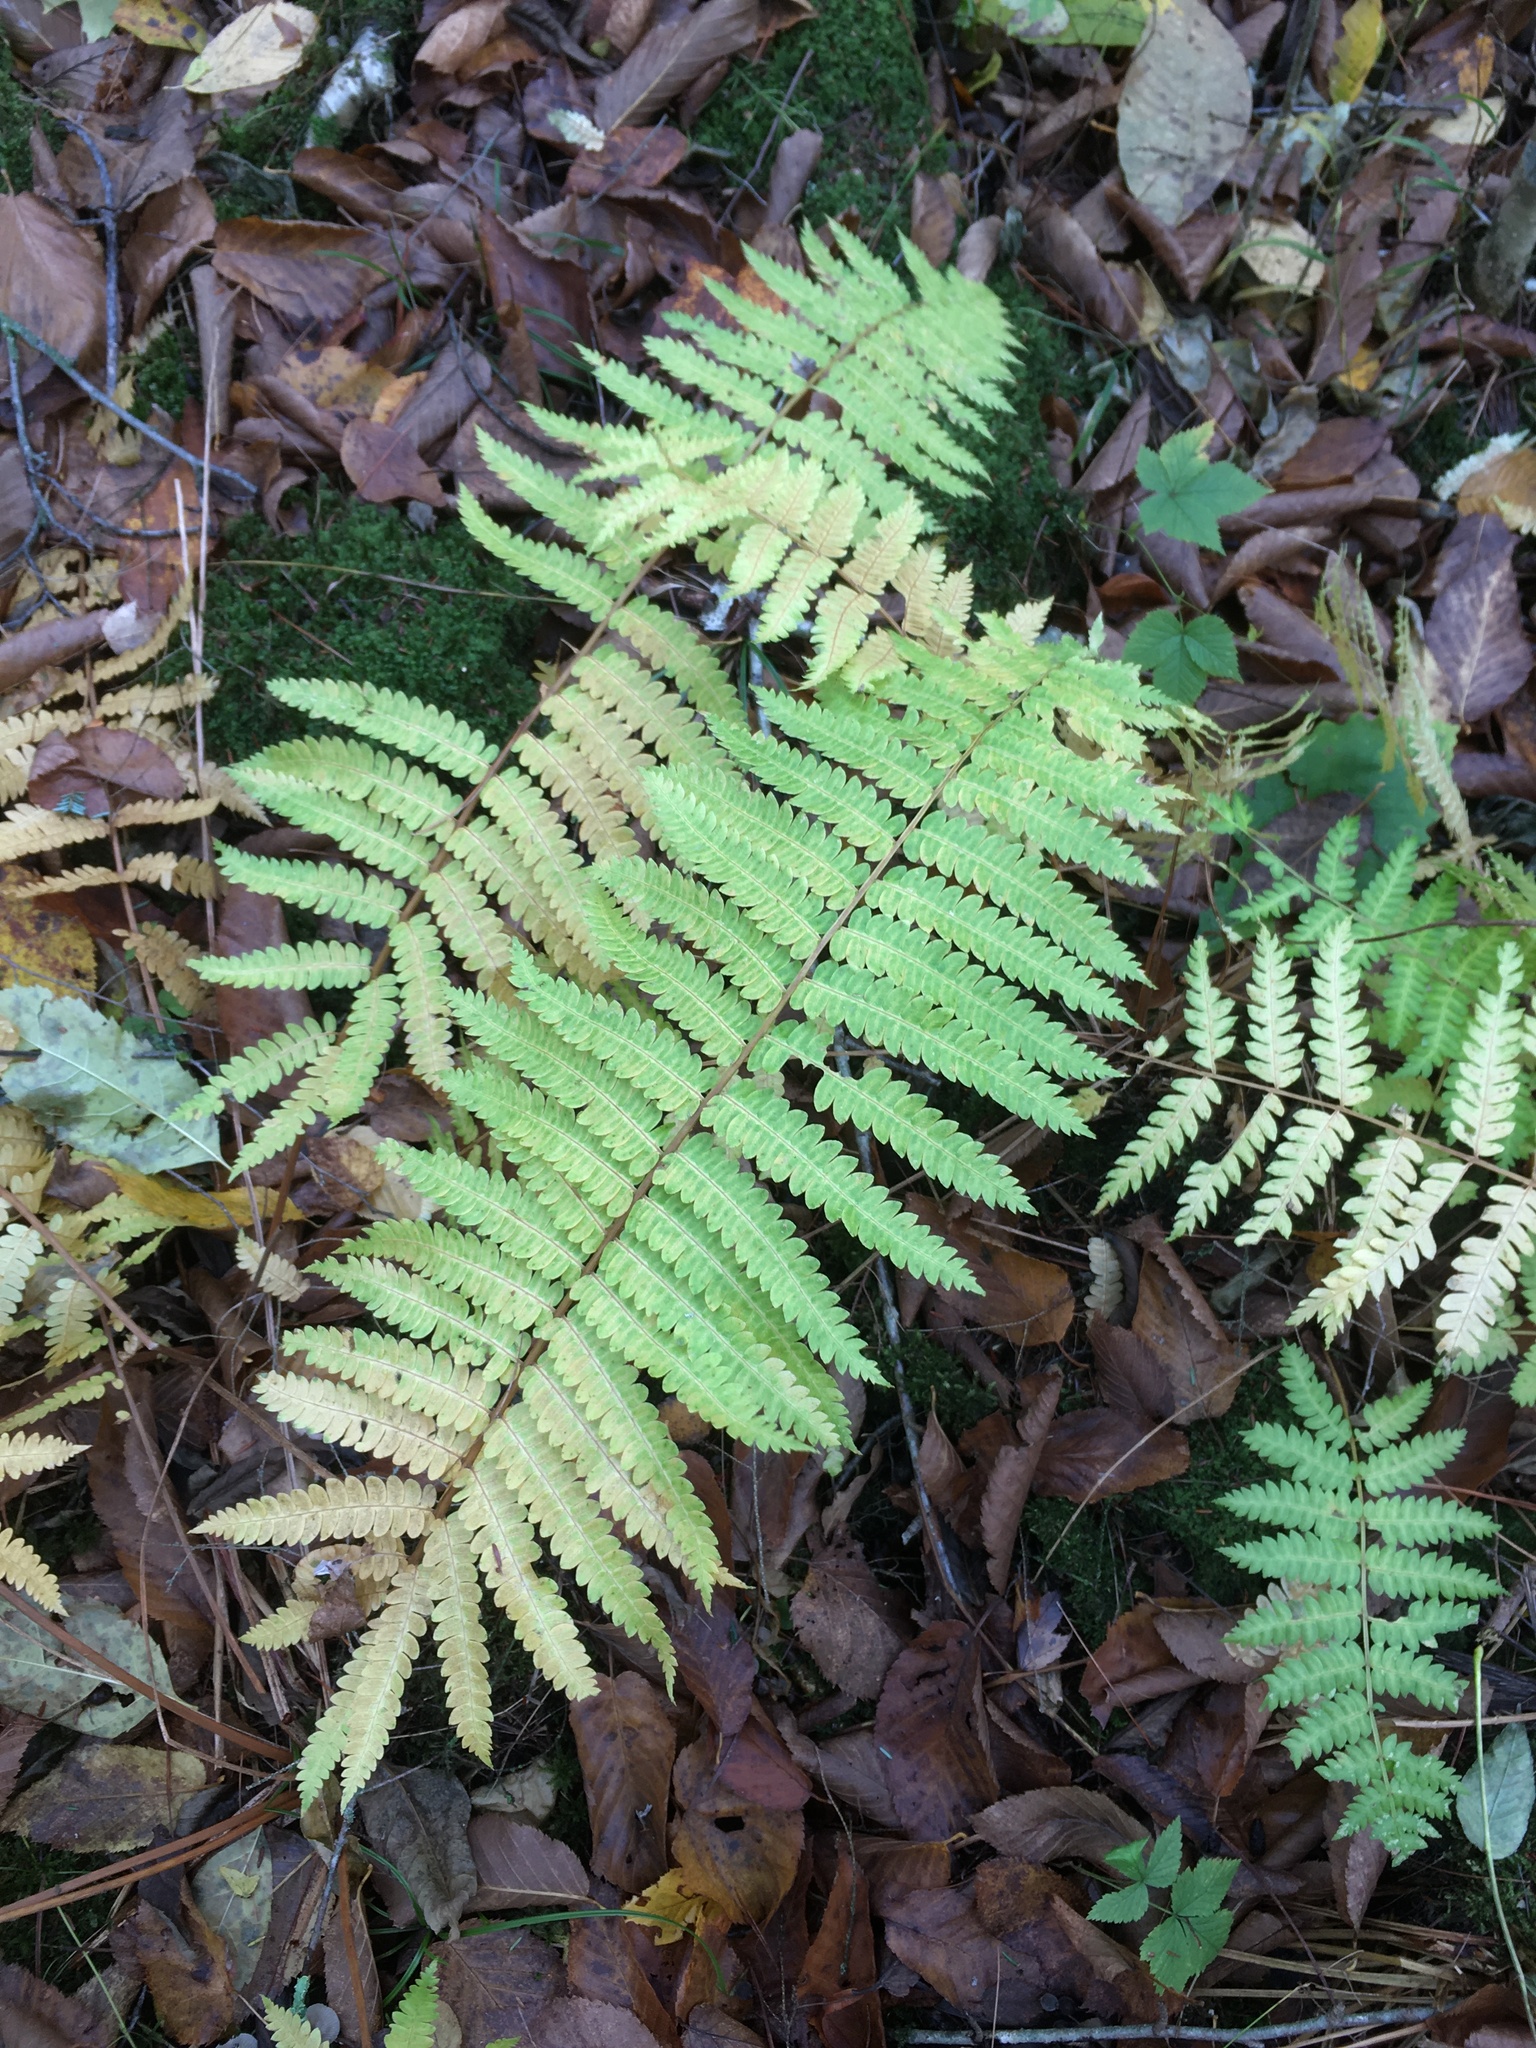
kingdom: Plantae
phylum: Tracheophyta
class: Polypodiopsida
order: Osmundales
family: Osmundaceae
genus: Osmundastrum
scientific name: Osmundastrum cinnamomeum
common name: Cinnamon fern
